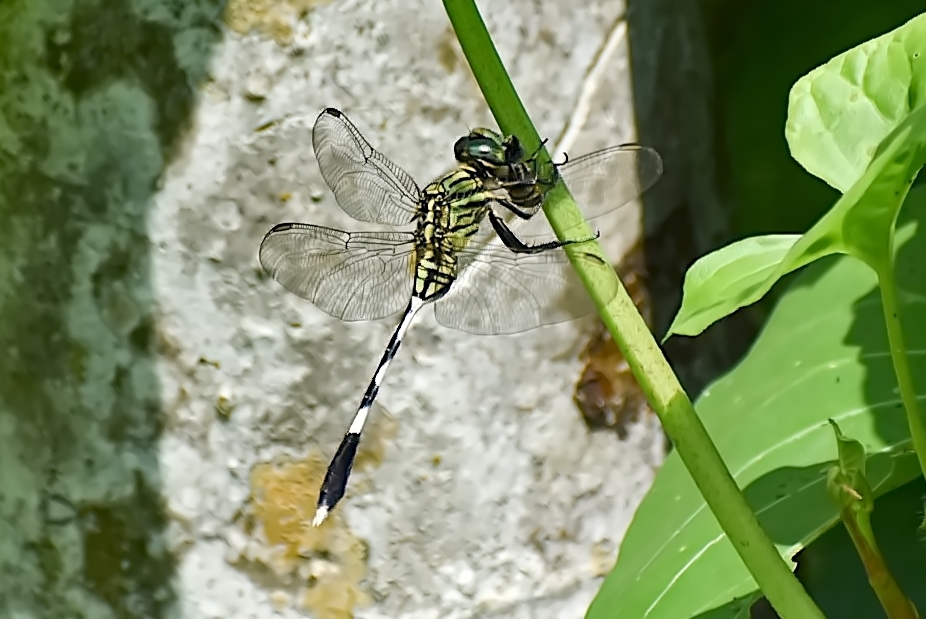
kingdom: Animalia
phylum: Arthropoda
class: Insecta
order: Odonata
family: Libellulidae
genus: Orthetrum
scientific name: Orthetrum sabina
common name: Slender skimmer
